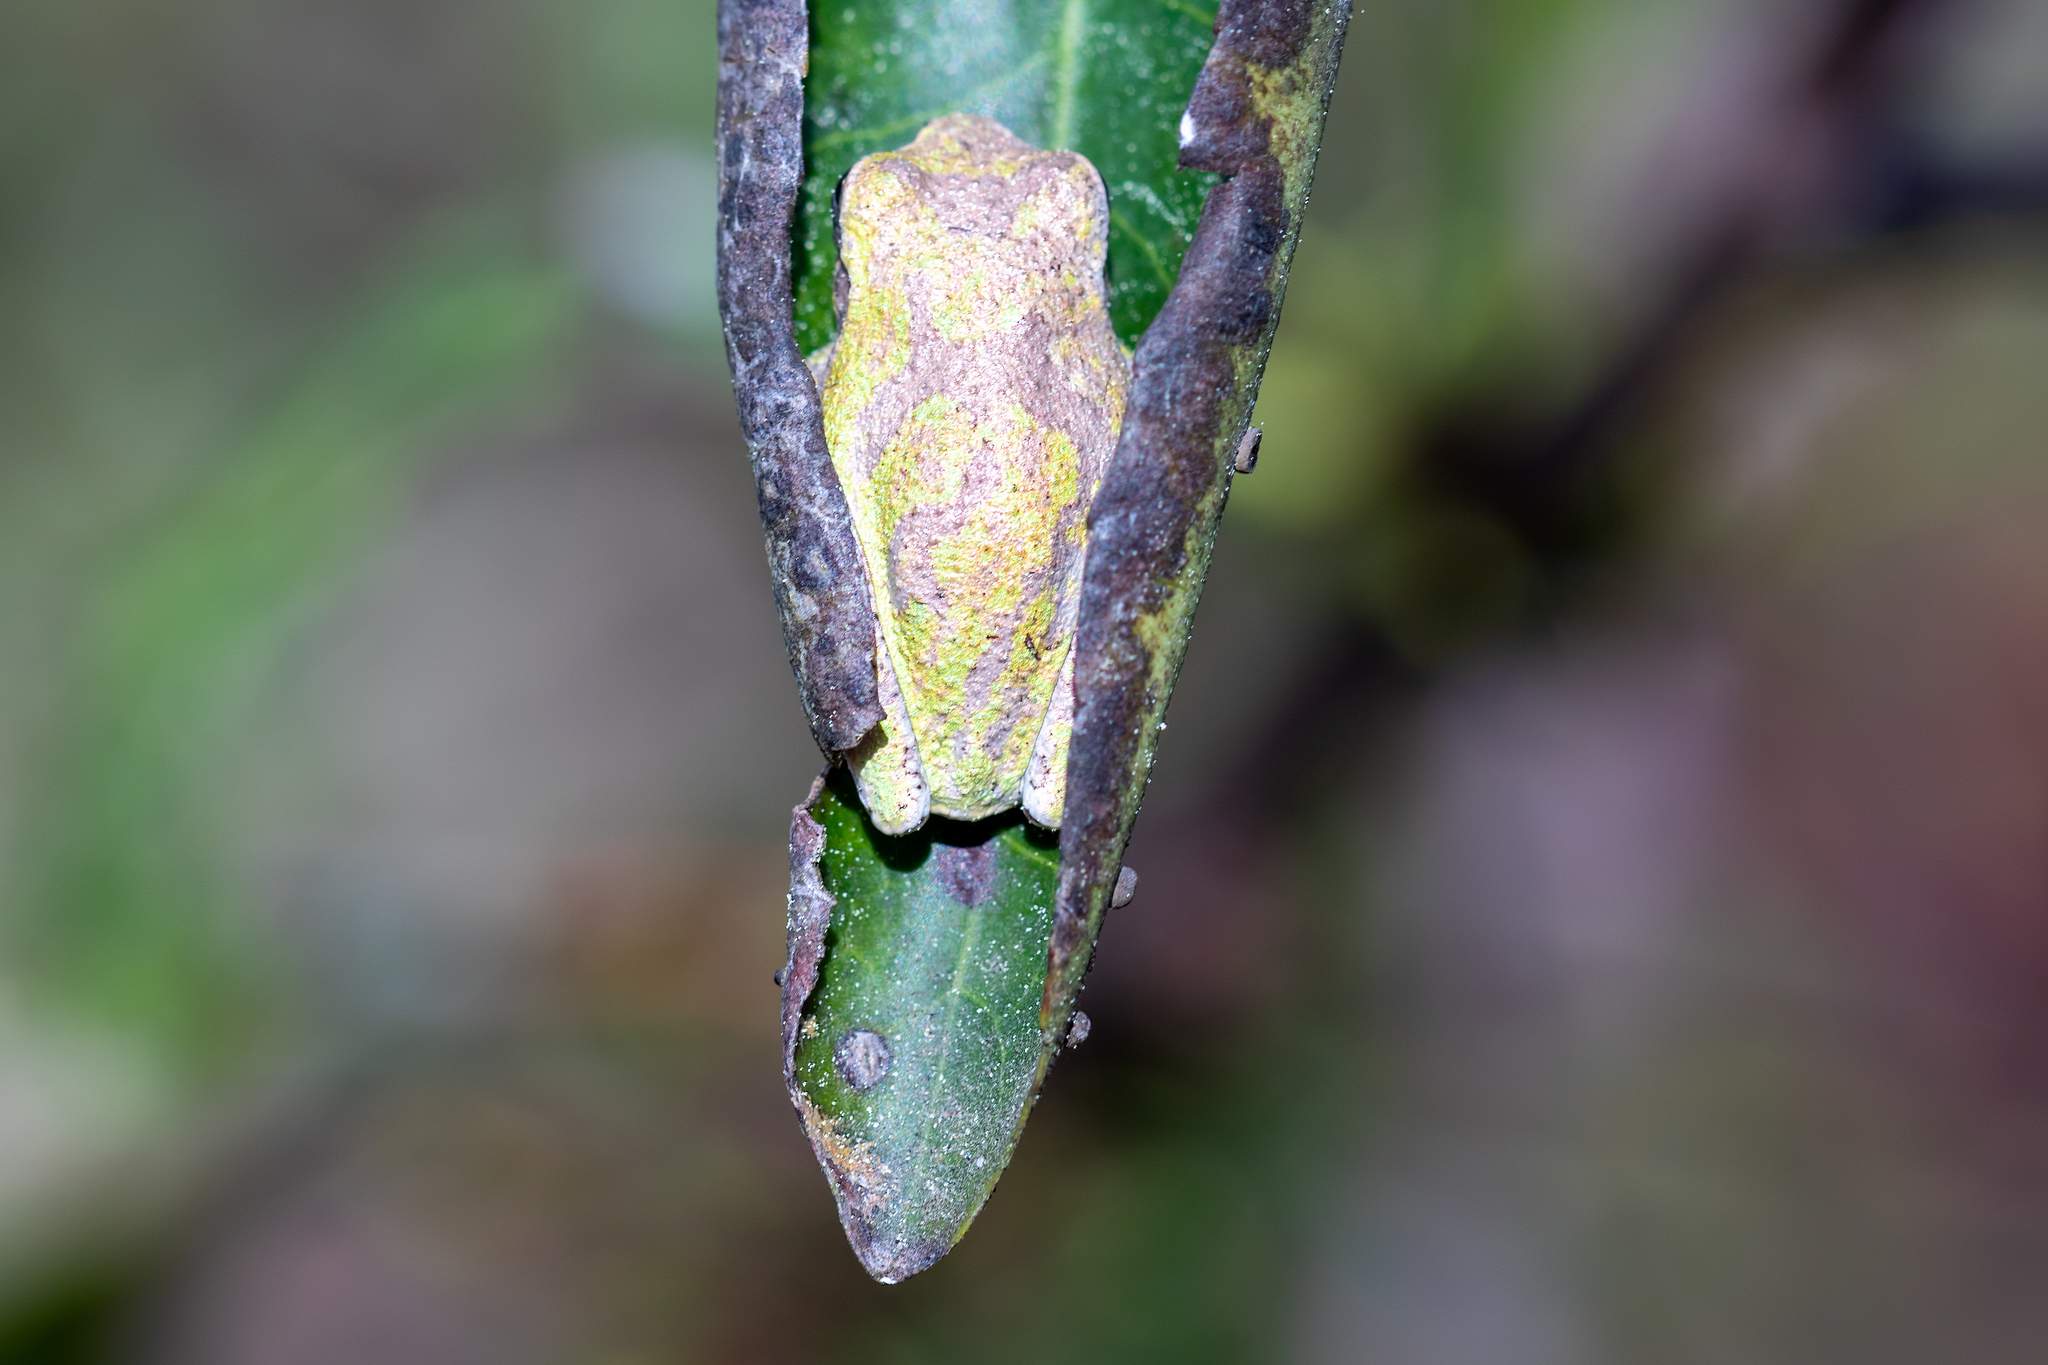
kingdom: Animalia
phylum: Chordata
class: Amphibia
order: Anura
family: Hylidae
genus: Osteopilus
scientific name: Osteopilus septentrionalis
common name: Cuban treefrog
